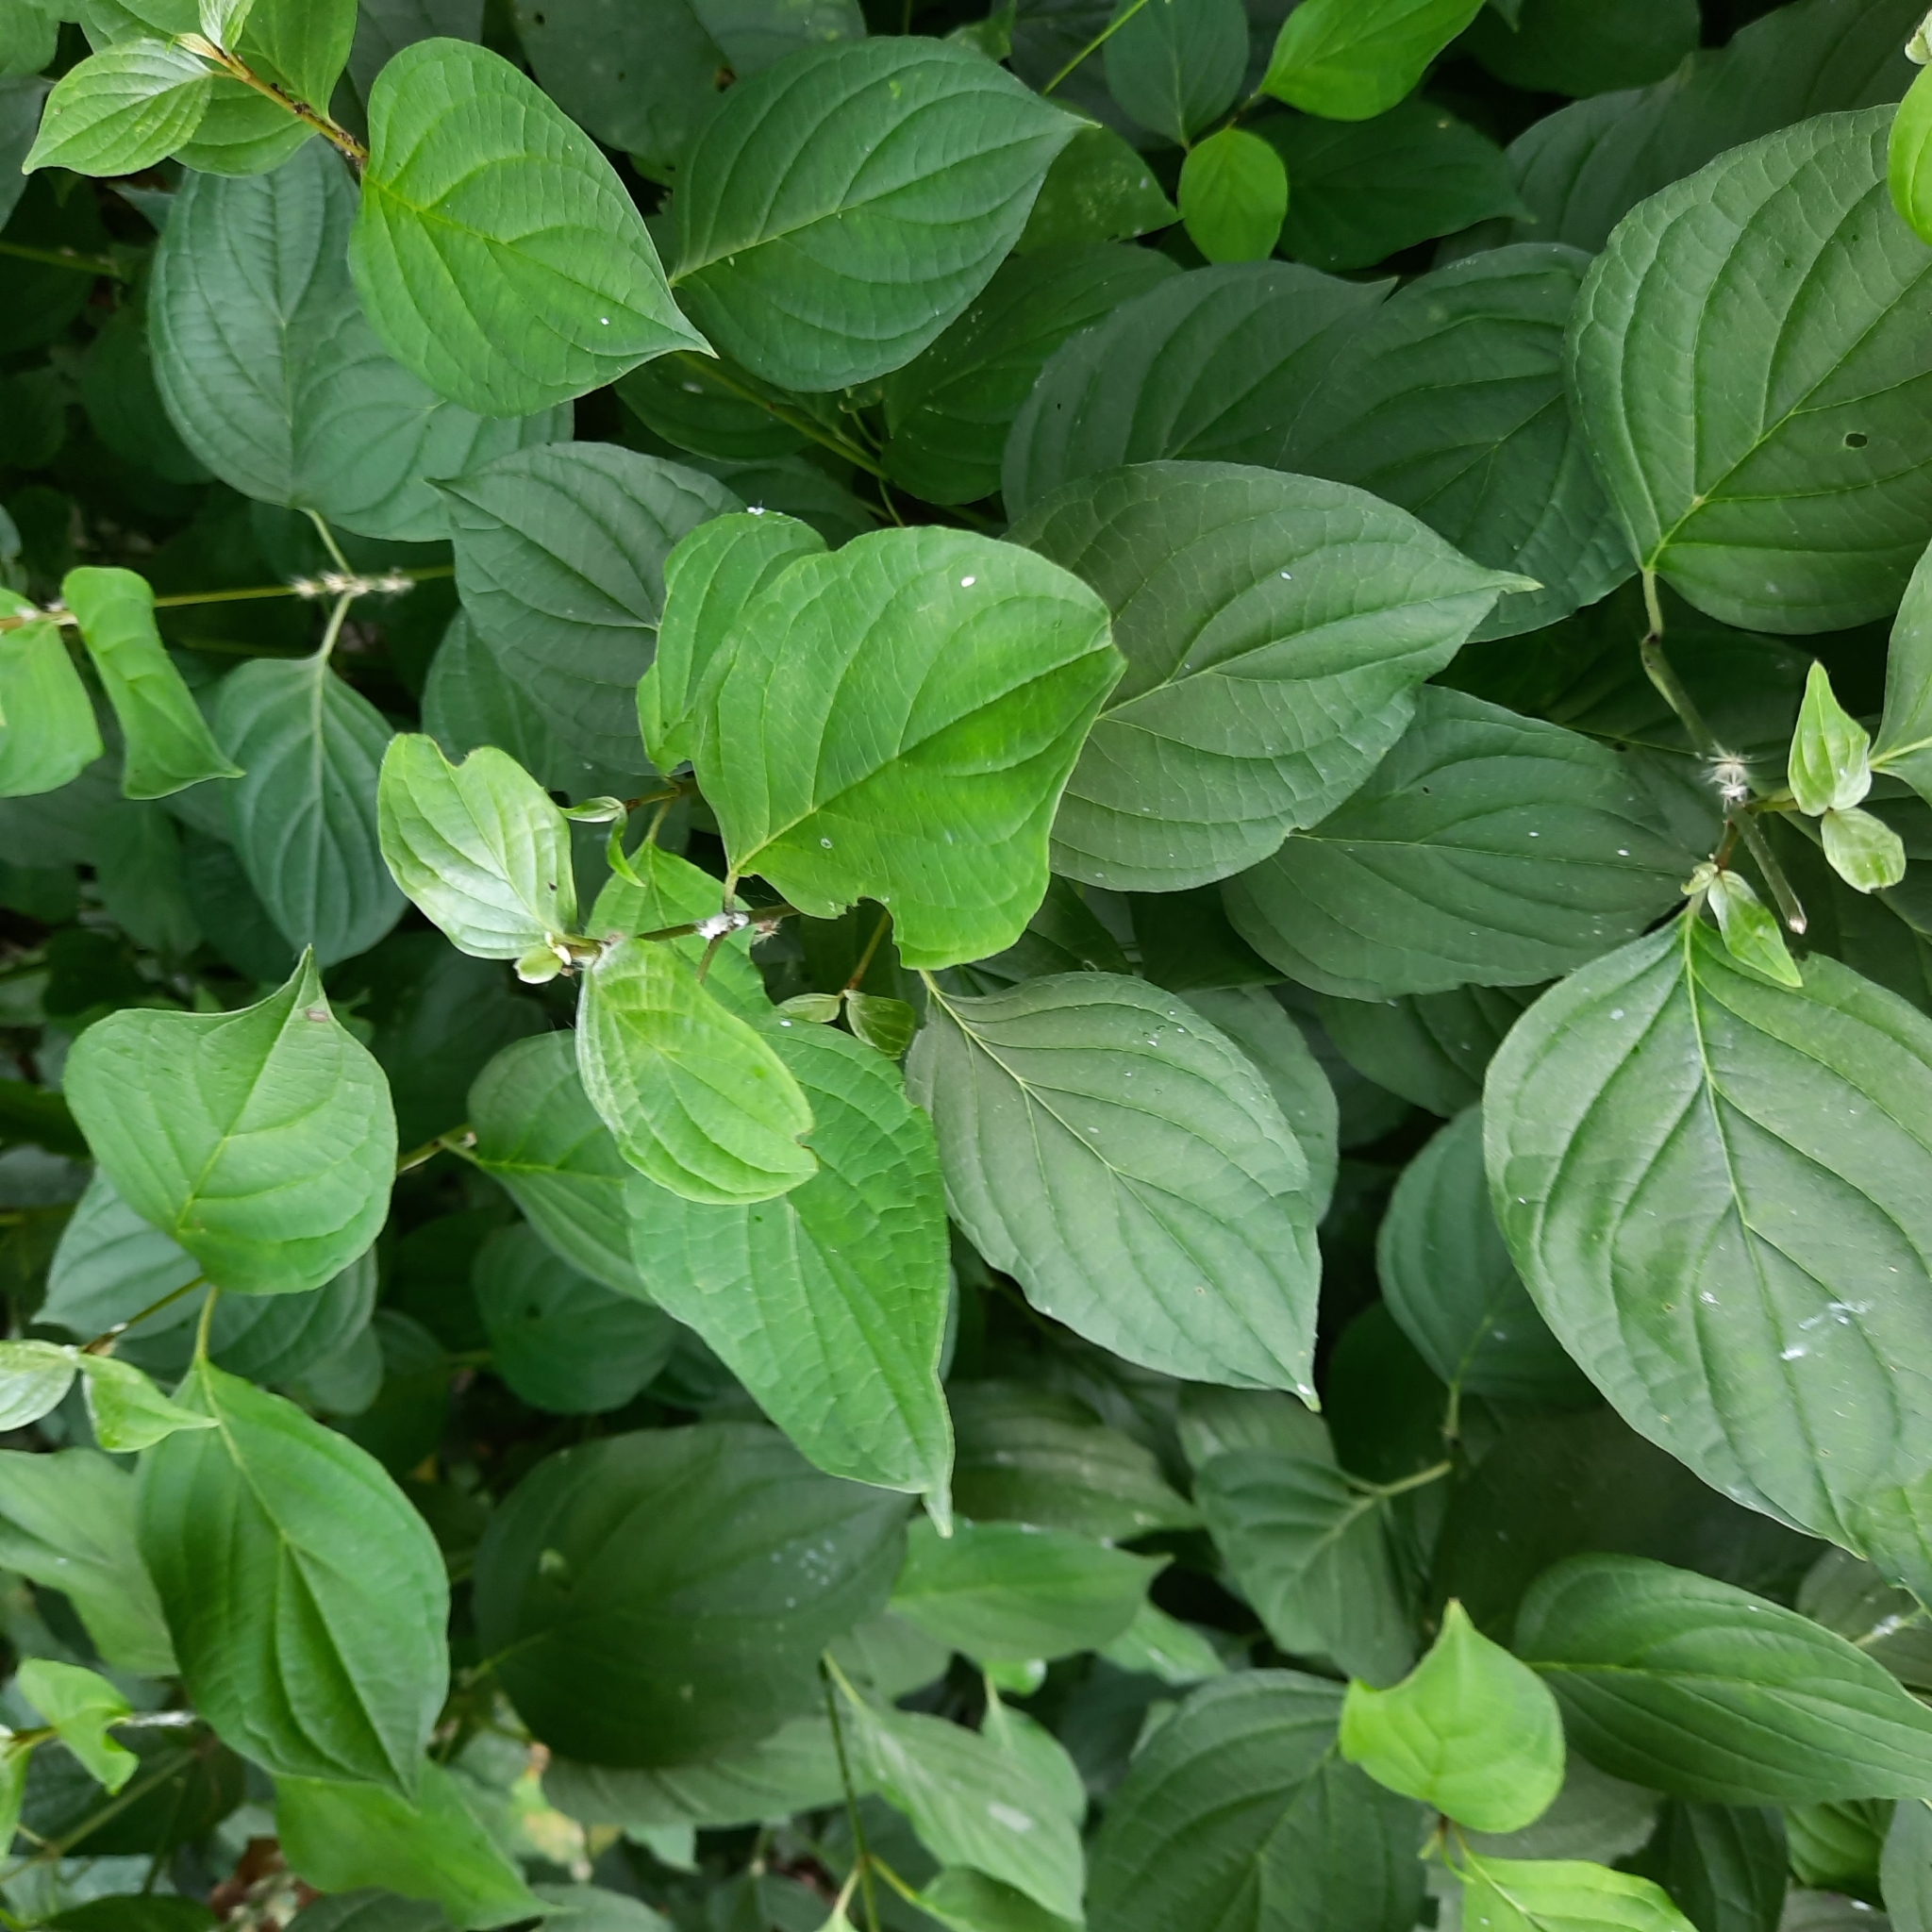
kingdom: Plantae
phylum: Tracheophyta
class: Magnoliopsida
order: Cornales
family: Cornaceae
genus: Cornus
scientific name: Cornus sanguinea
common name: Dogwood
